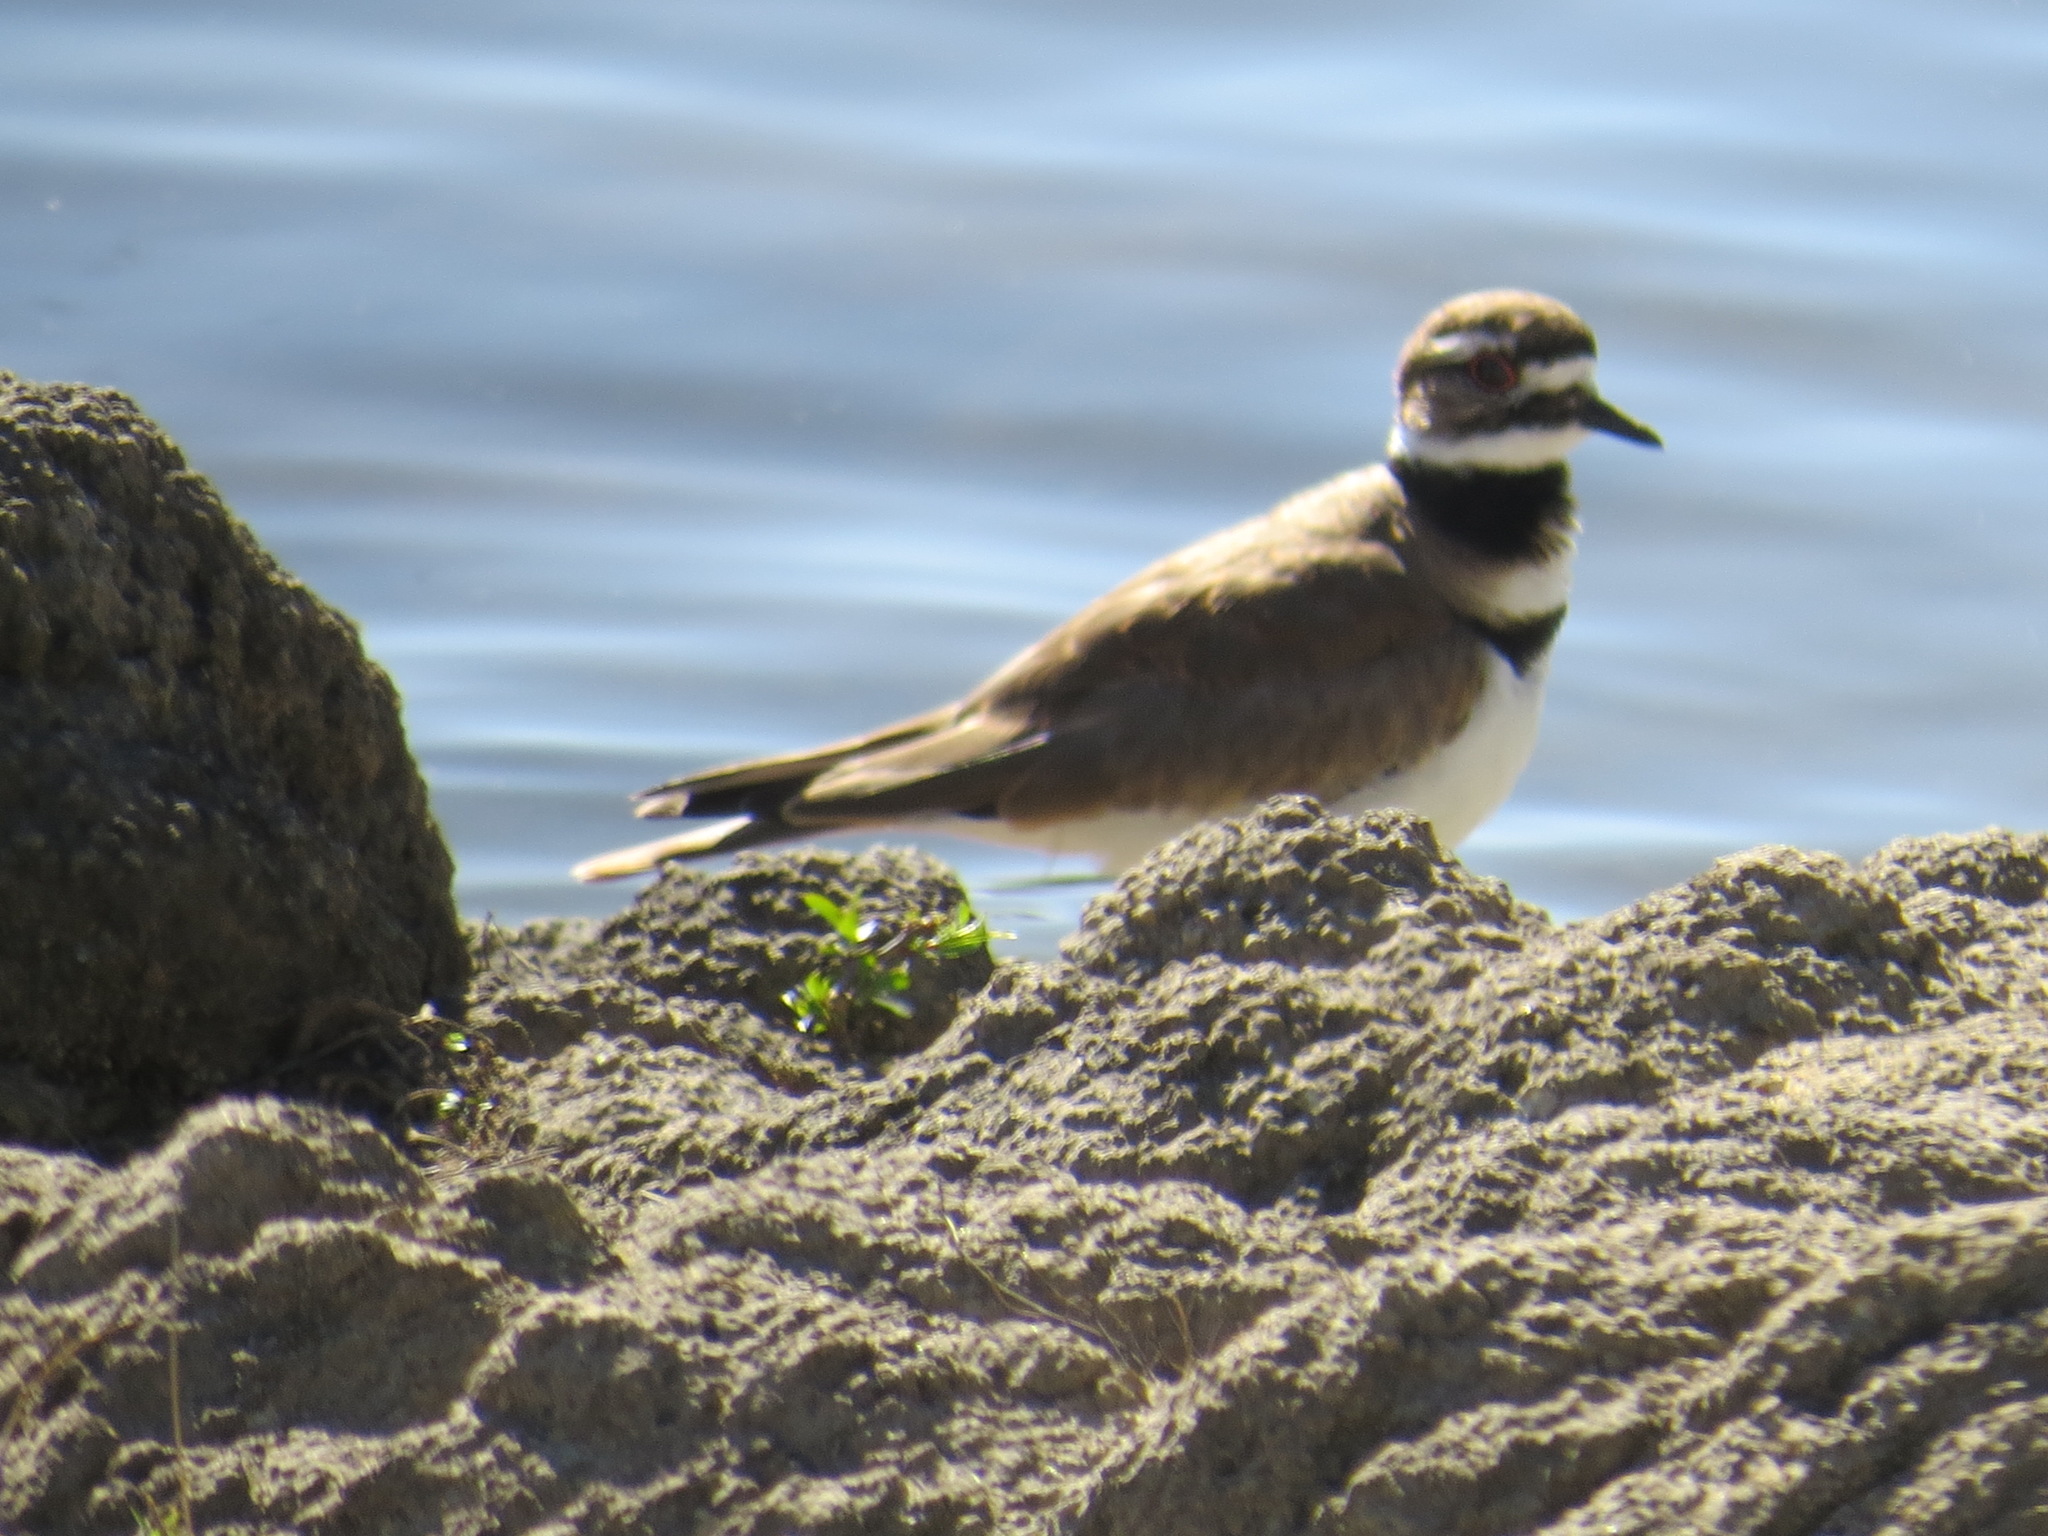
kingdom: Animalia
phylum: Chordata
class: Aves
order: Charadriiformes
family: Charadriidae
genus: Charadrius
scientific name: Charadrius vociferus
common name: Killdeer
